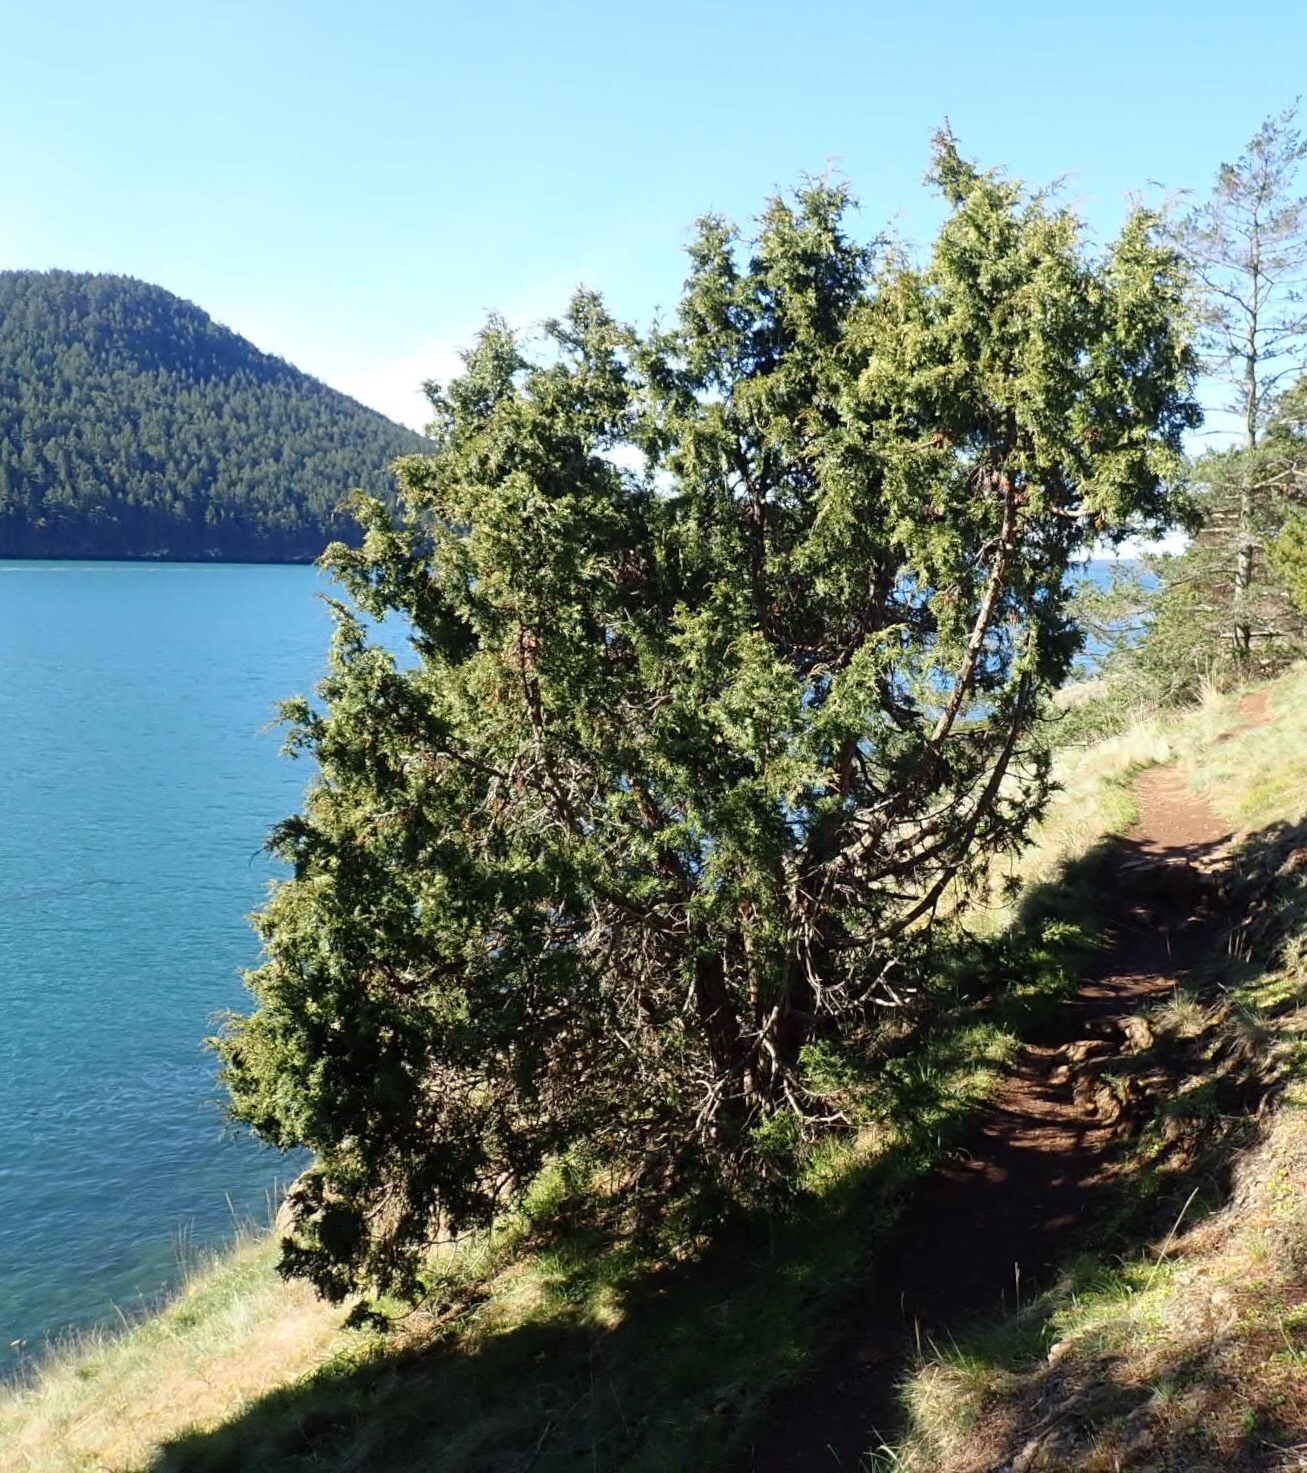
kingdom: Plantae
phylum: Tracheophyta
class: Pinopsida
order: Pinales
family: Cupressaceae
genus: Juniperus
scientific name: Juniperus scopulorum
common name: Rocky mountain juniper
